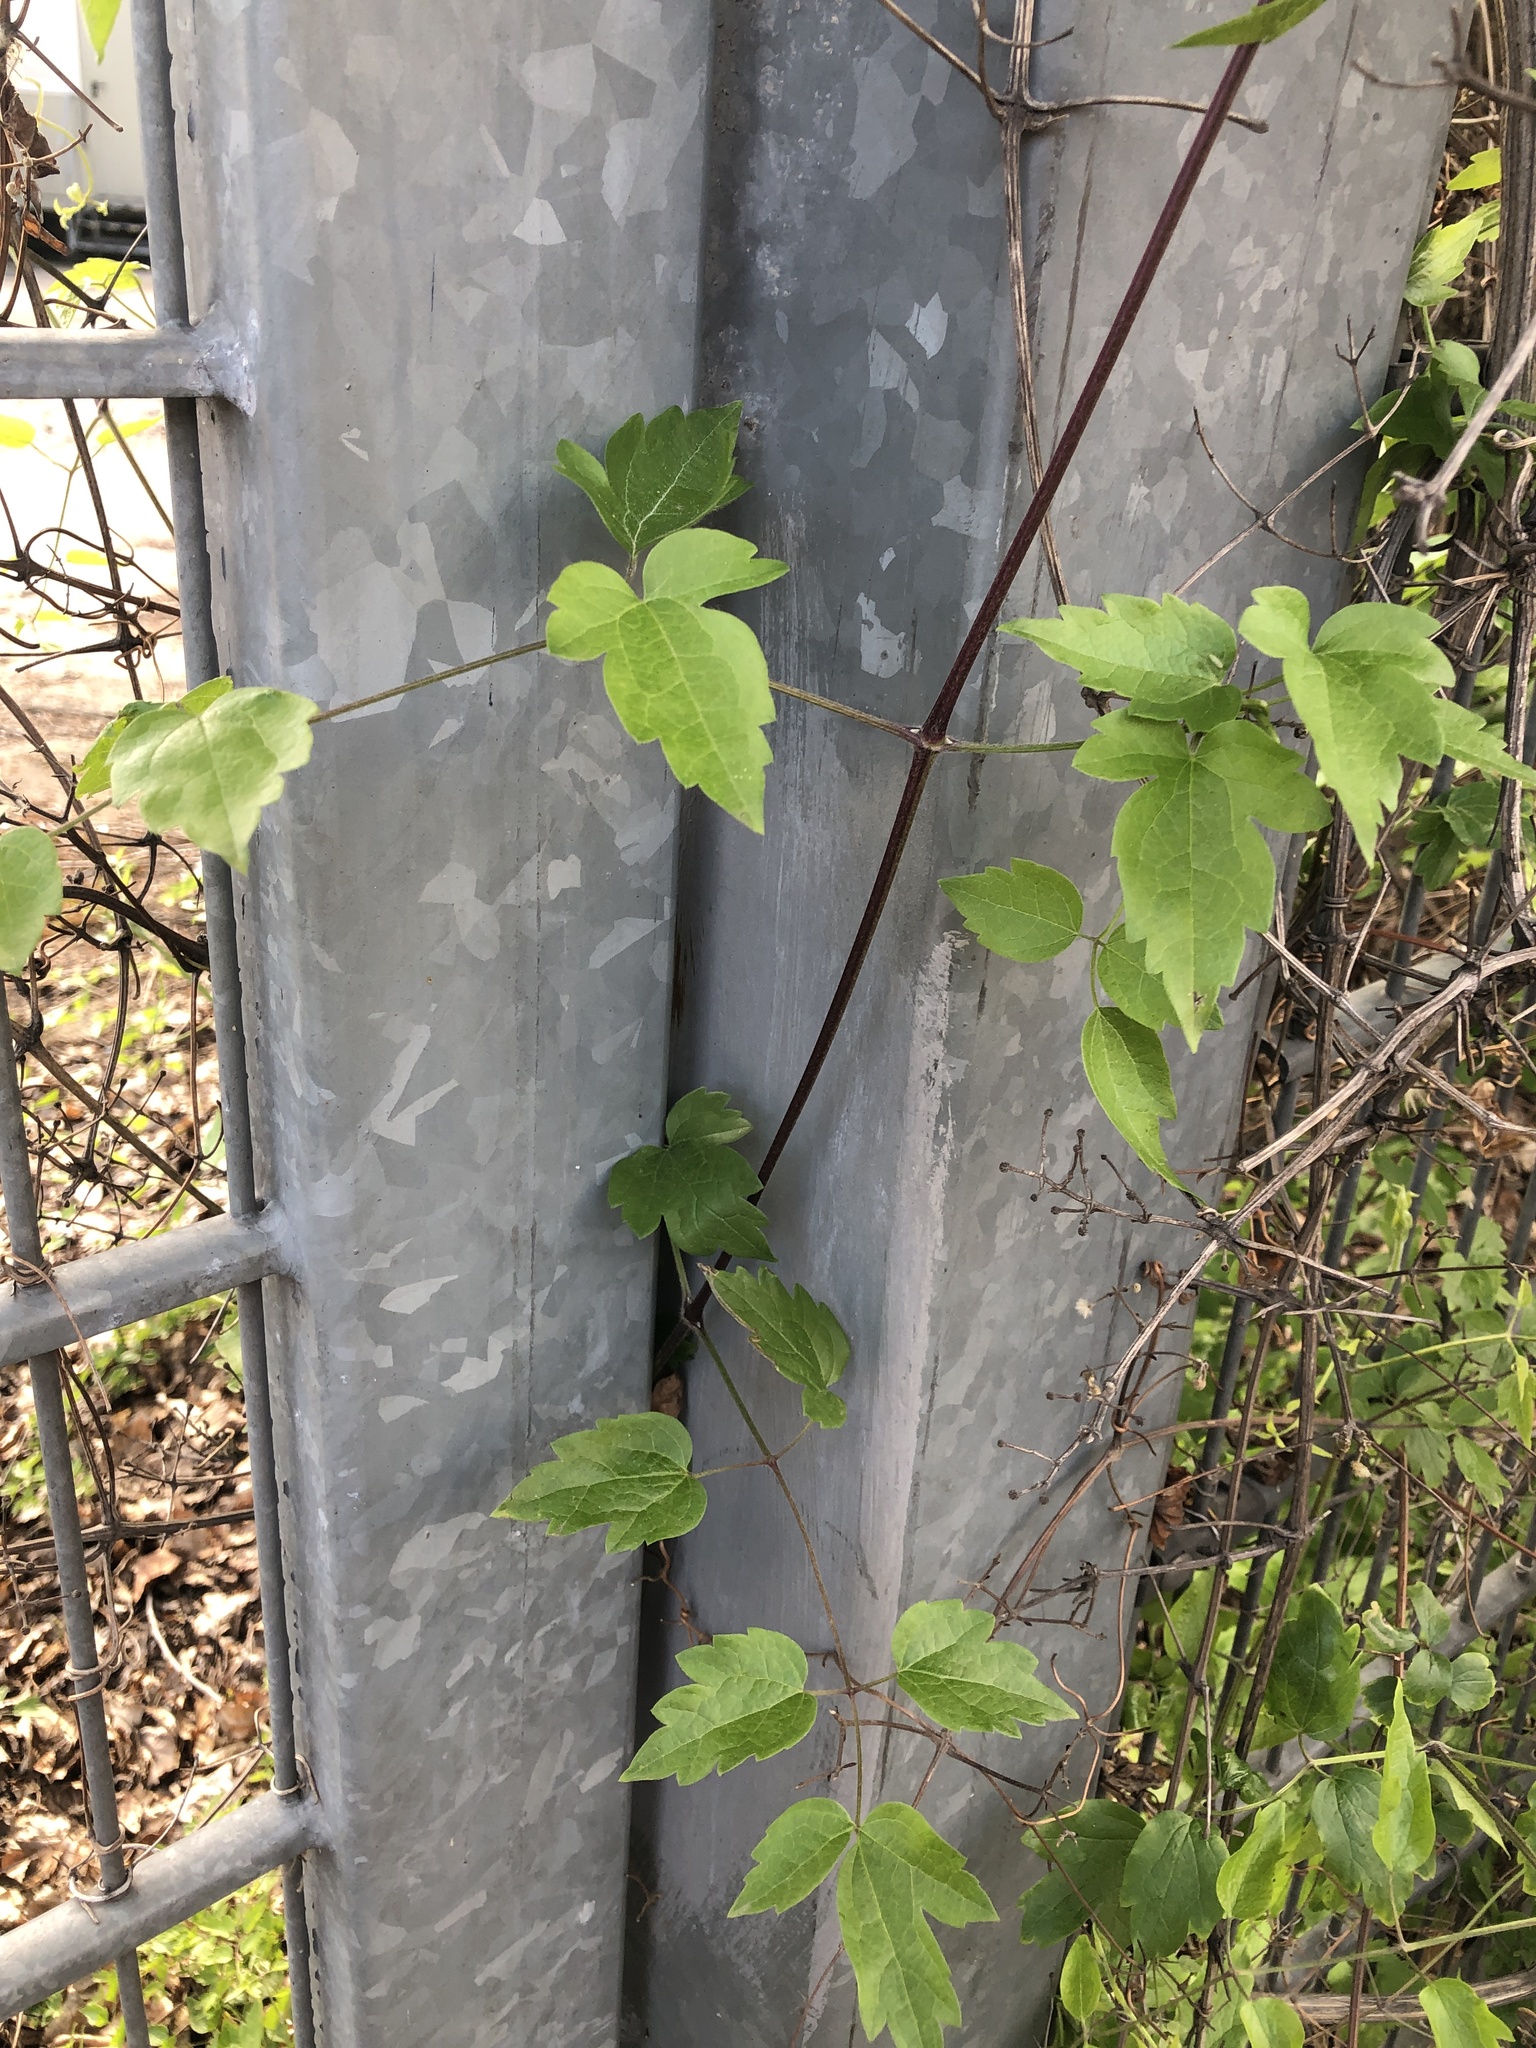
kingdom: Plantae
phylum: Tracheophyta
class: Magnoliopsida
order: Ranunculales
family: Ranunculaceae
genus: Clematis
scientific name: Clematis vitalba
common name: Evergreen clematis
